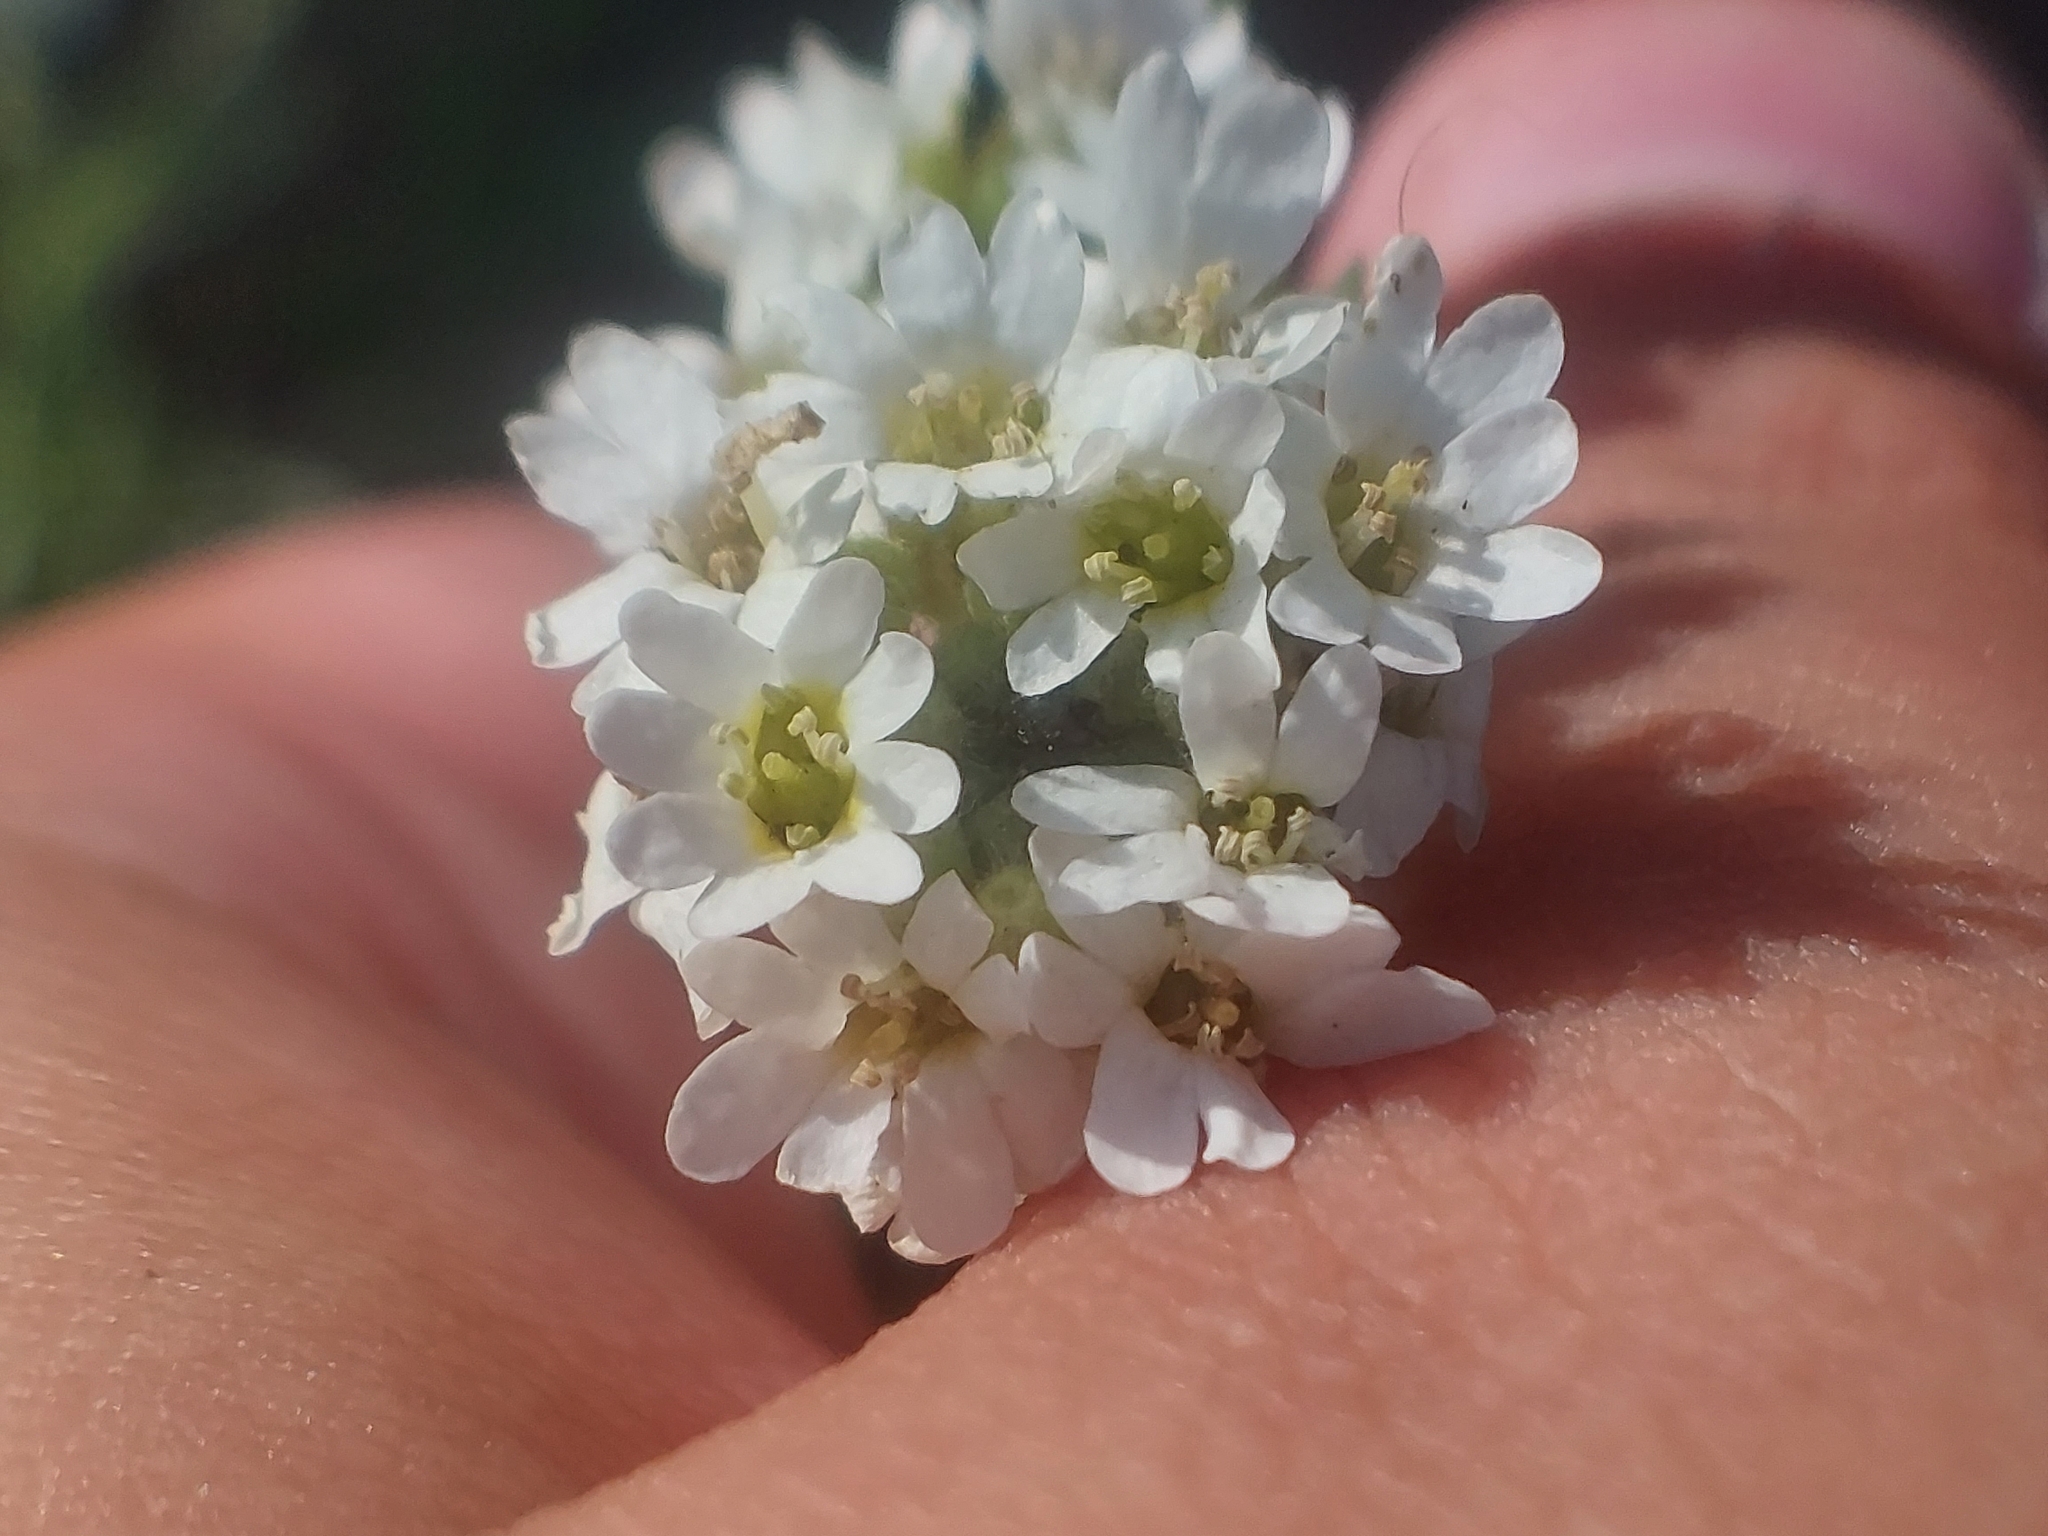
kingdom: Plantae
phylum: Tracheophyta
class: Magnoliopsida
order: Brassicales
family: Brassicaceae
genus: Berteroa
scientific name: Berteroa incana
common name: Hoary alison
